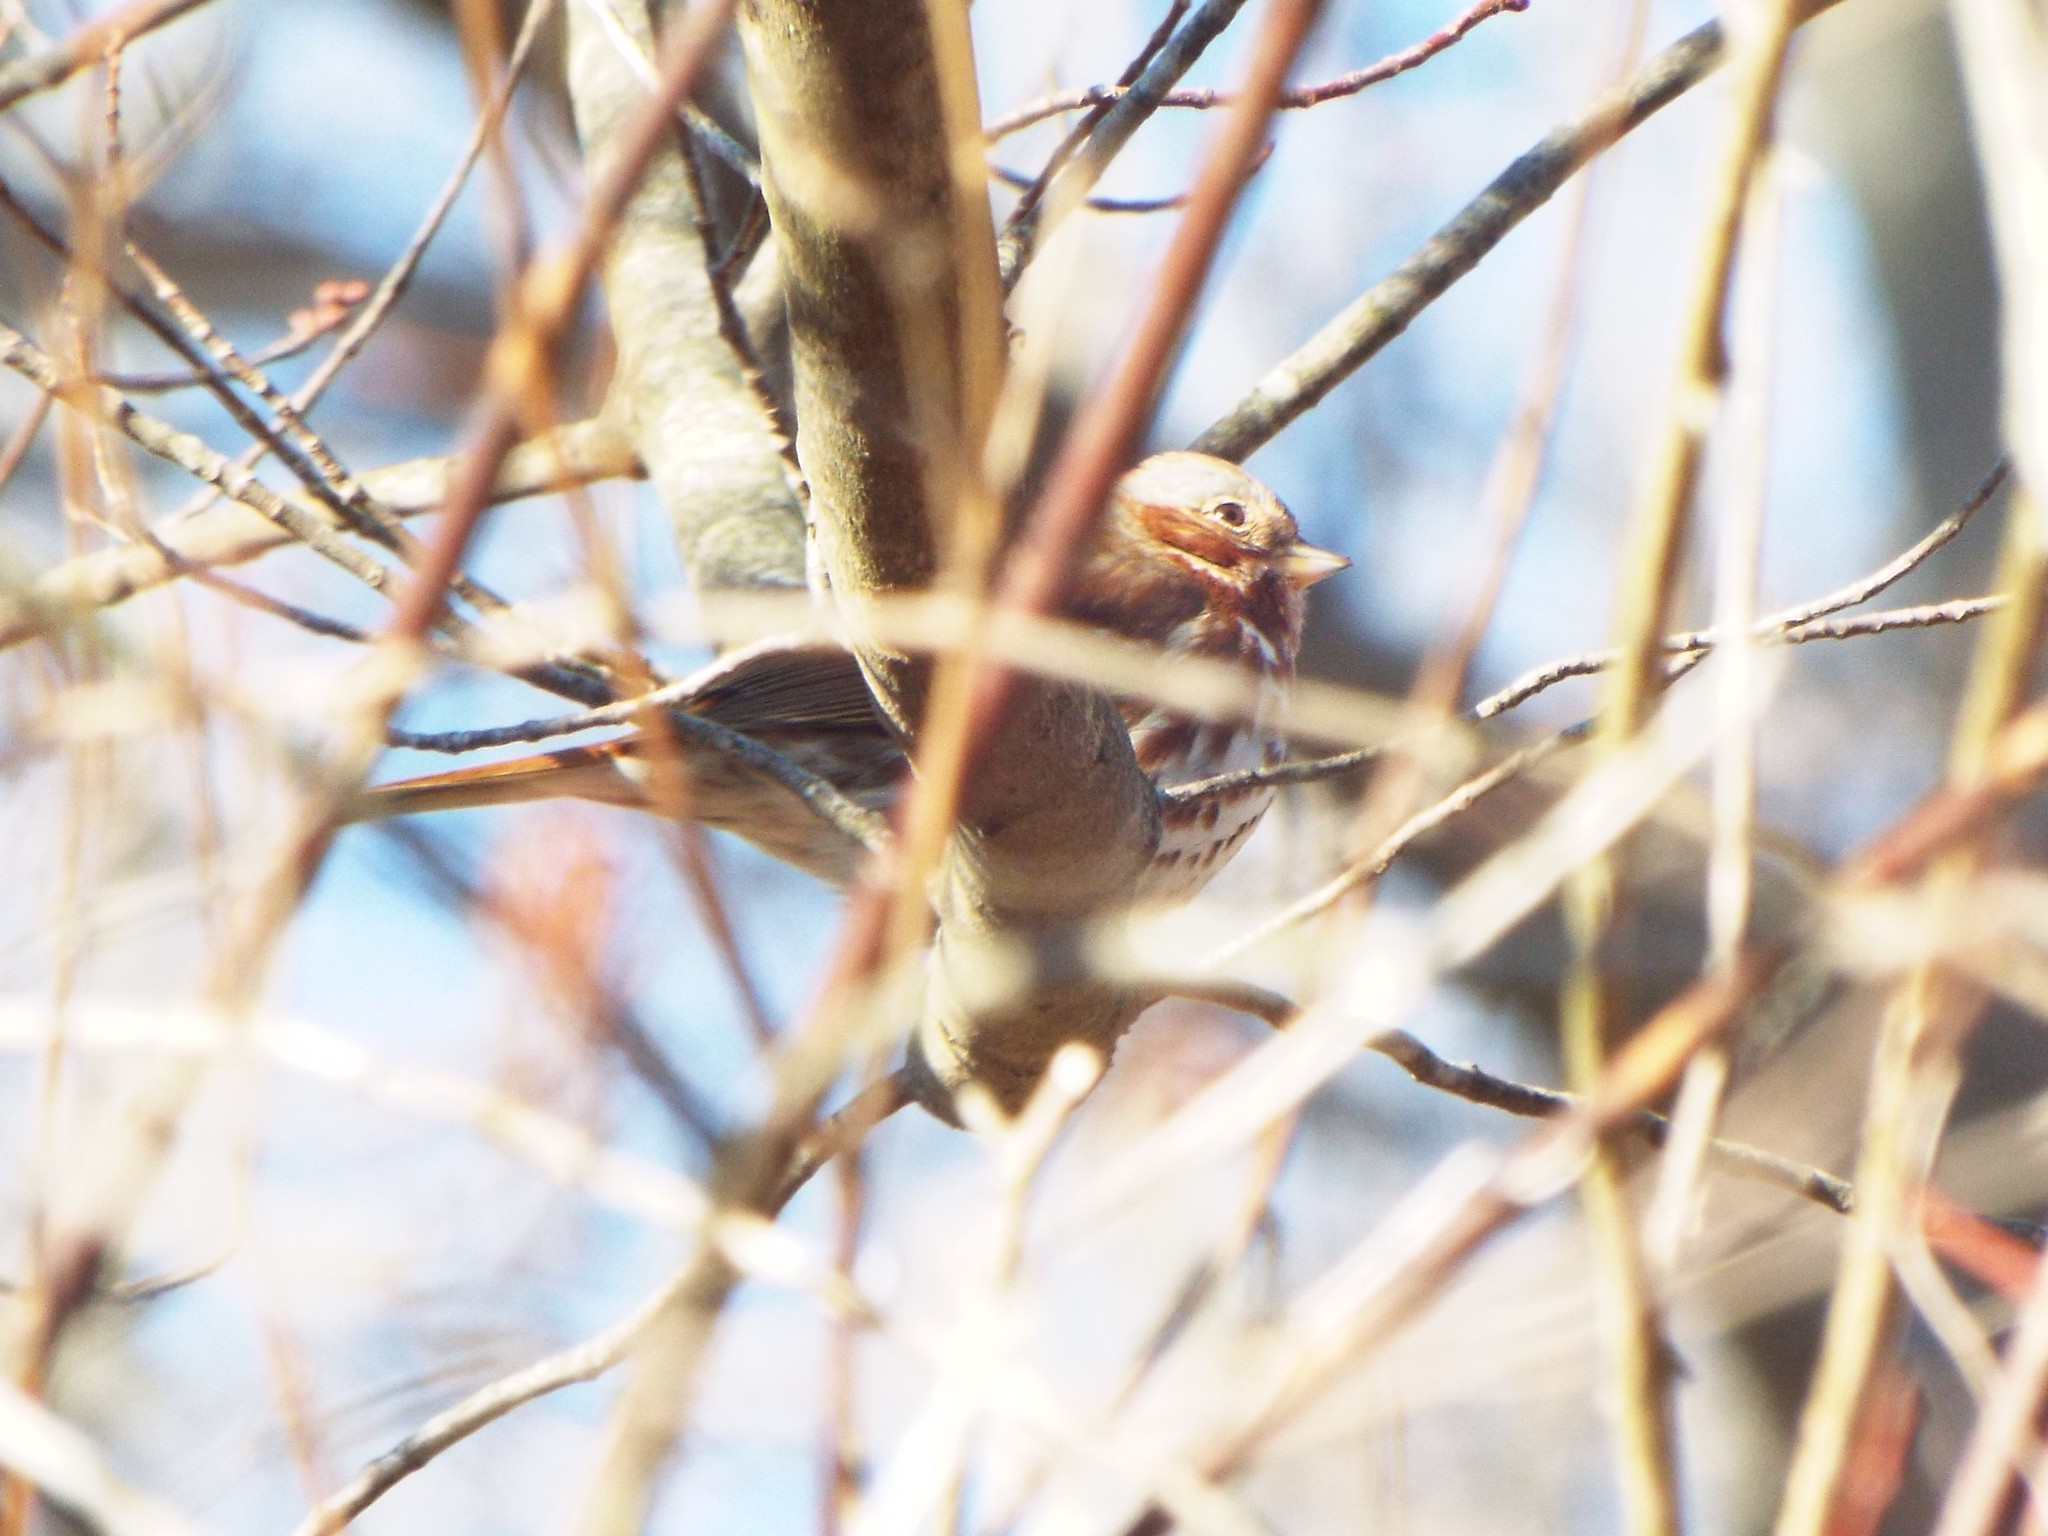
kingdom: Animalia
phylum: Chordata
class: Aves
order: Passeriformes
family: Passerellidae
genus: Passerella
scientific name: Passerella iliaca
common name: Fox sparrow
